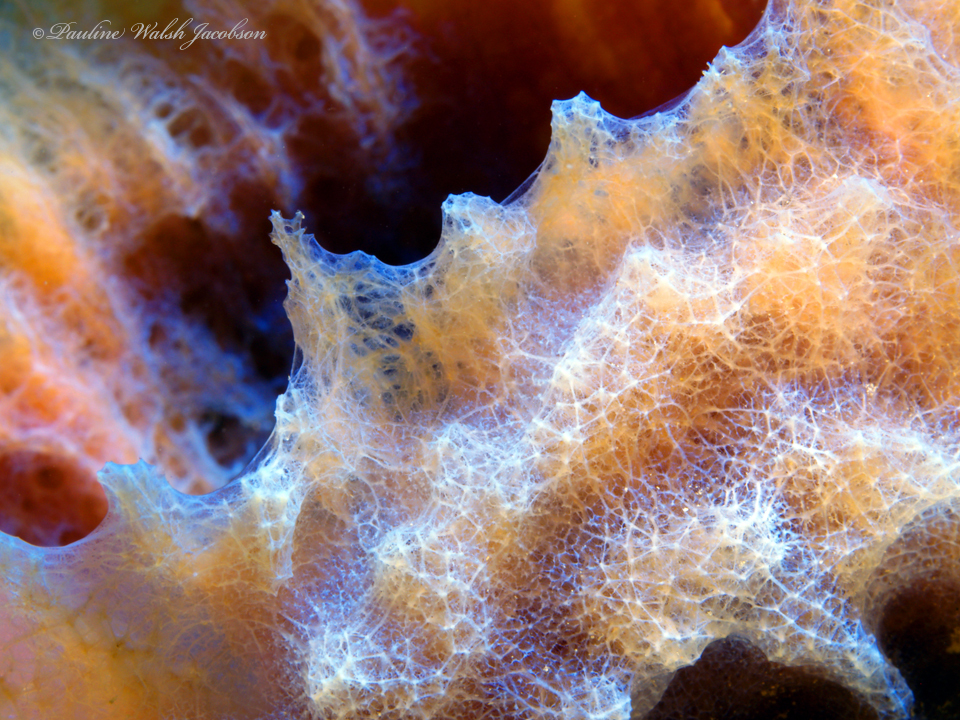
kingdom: Animalia
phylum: Porifera
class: Demospongiae
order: Haplosclerida
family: Callyspongiidae
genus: Callyspongia
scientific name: Callyspongia plicifera
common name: Azure vase sponge
